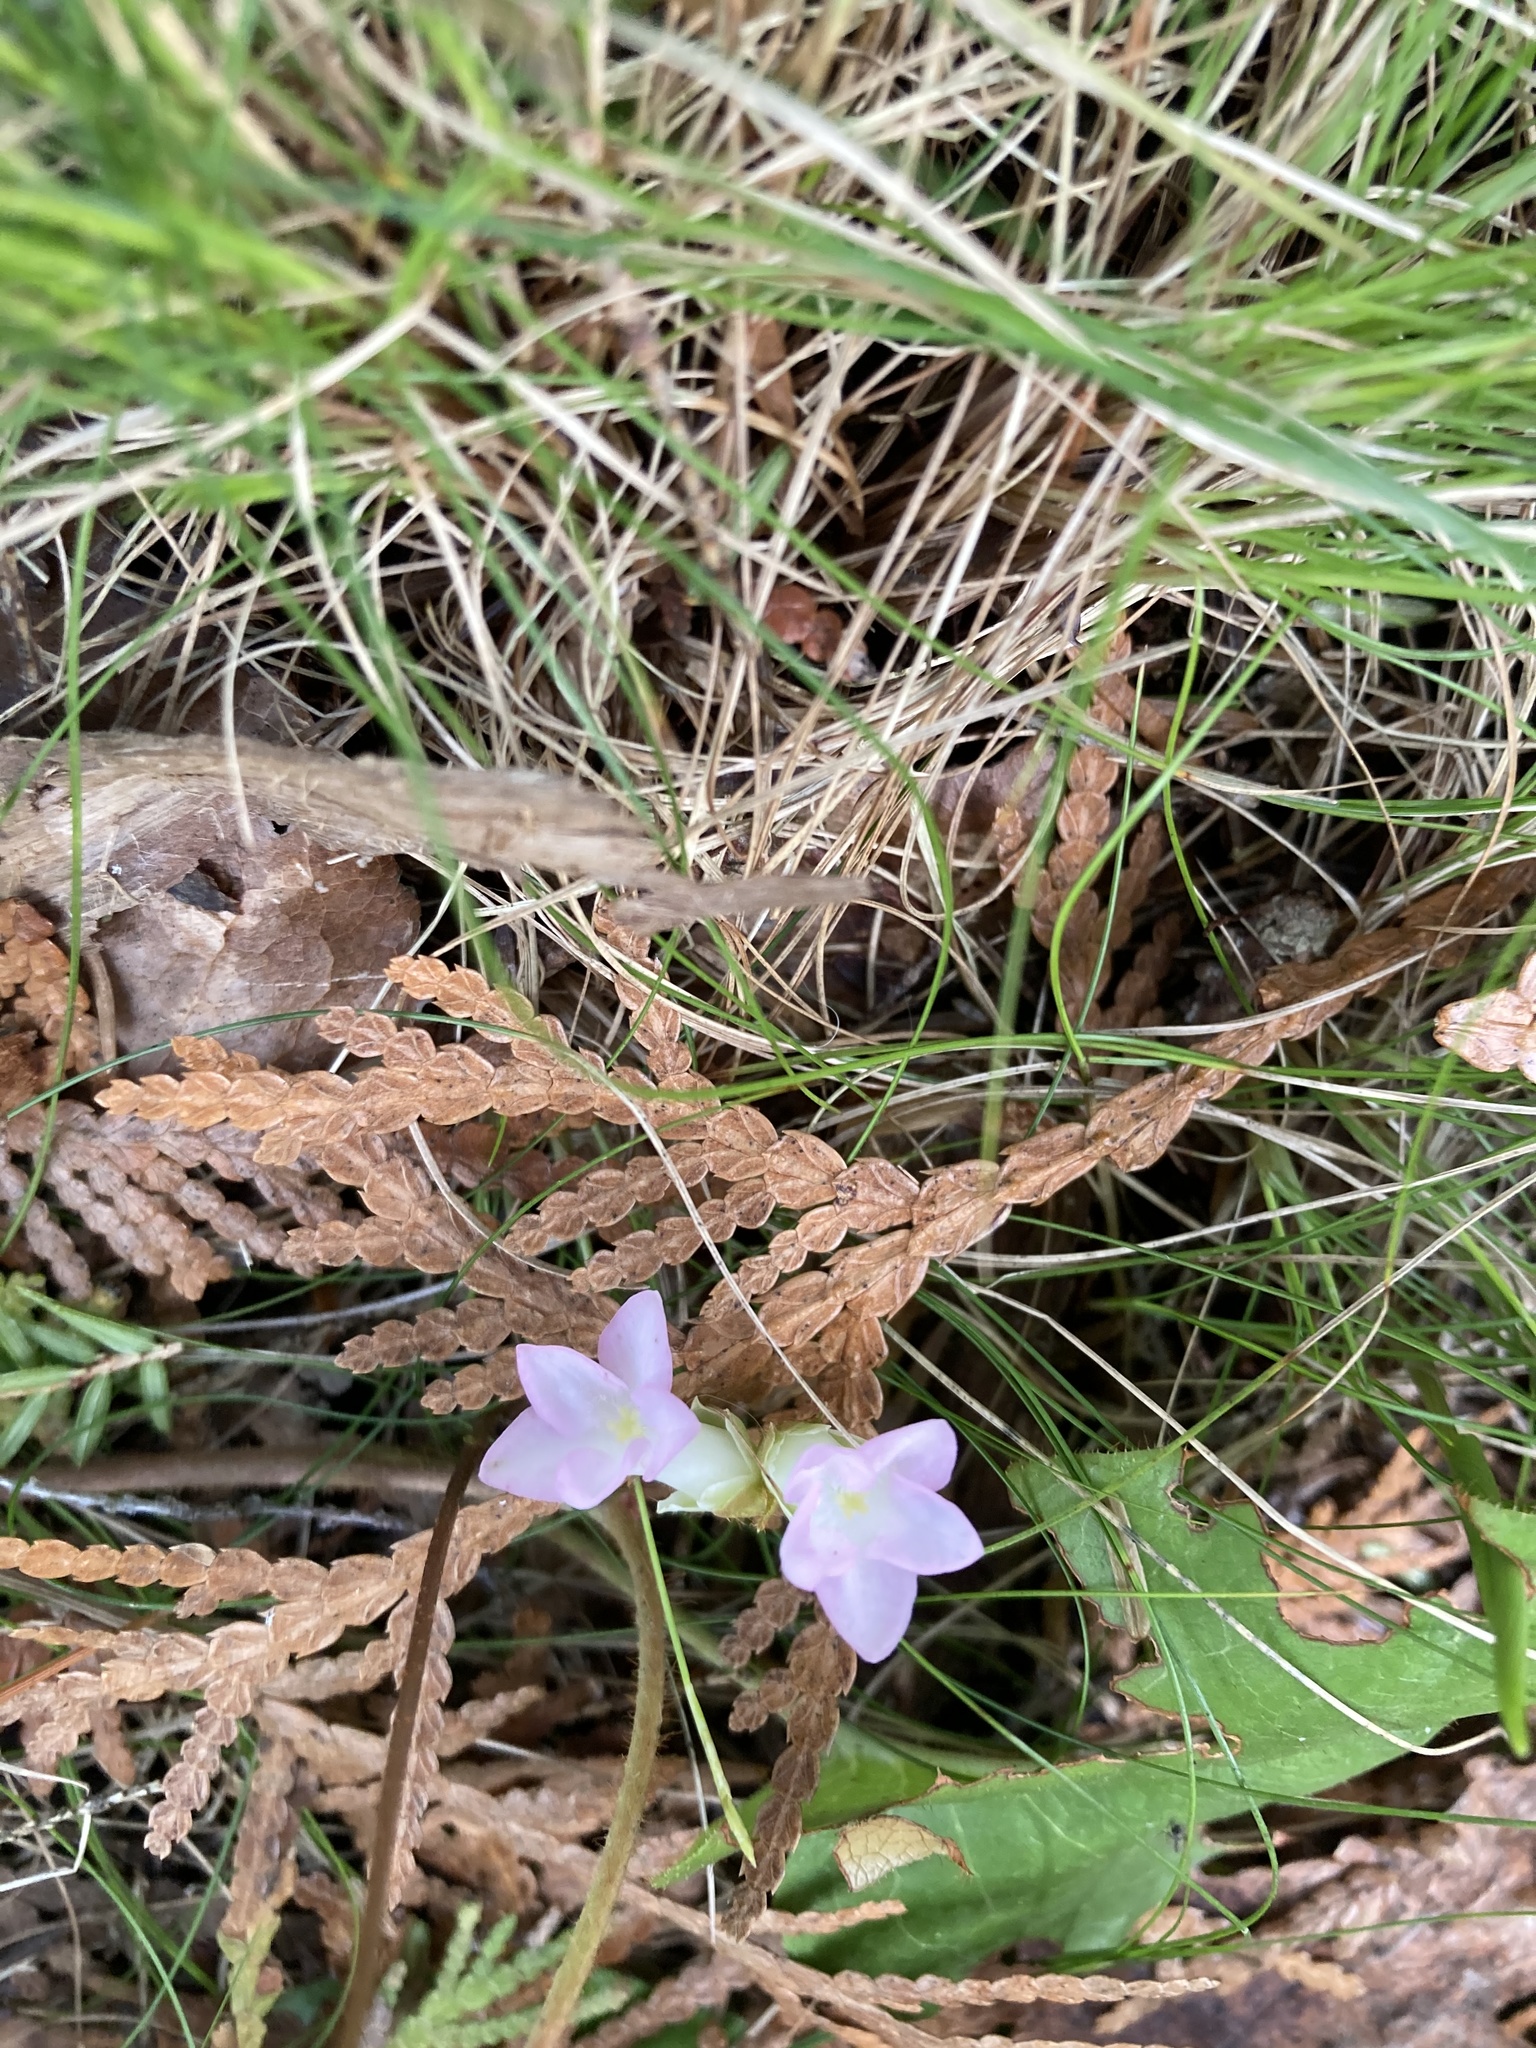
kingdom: Plantae
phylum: Tracheophyta
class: Magnoliopsida
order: Ericales
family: Ericaceae
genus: Epigaea
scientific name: Epigaea repens
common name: Gravelroot
